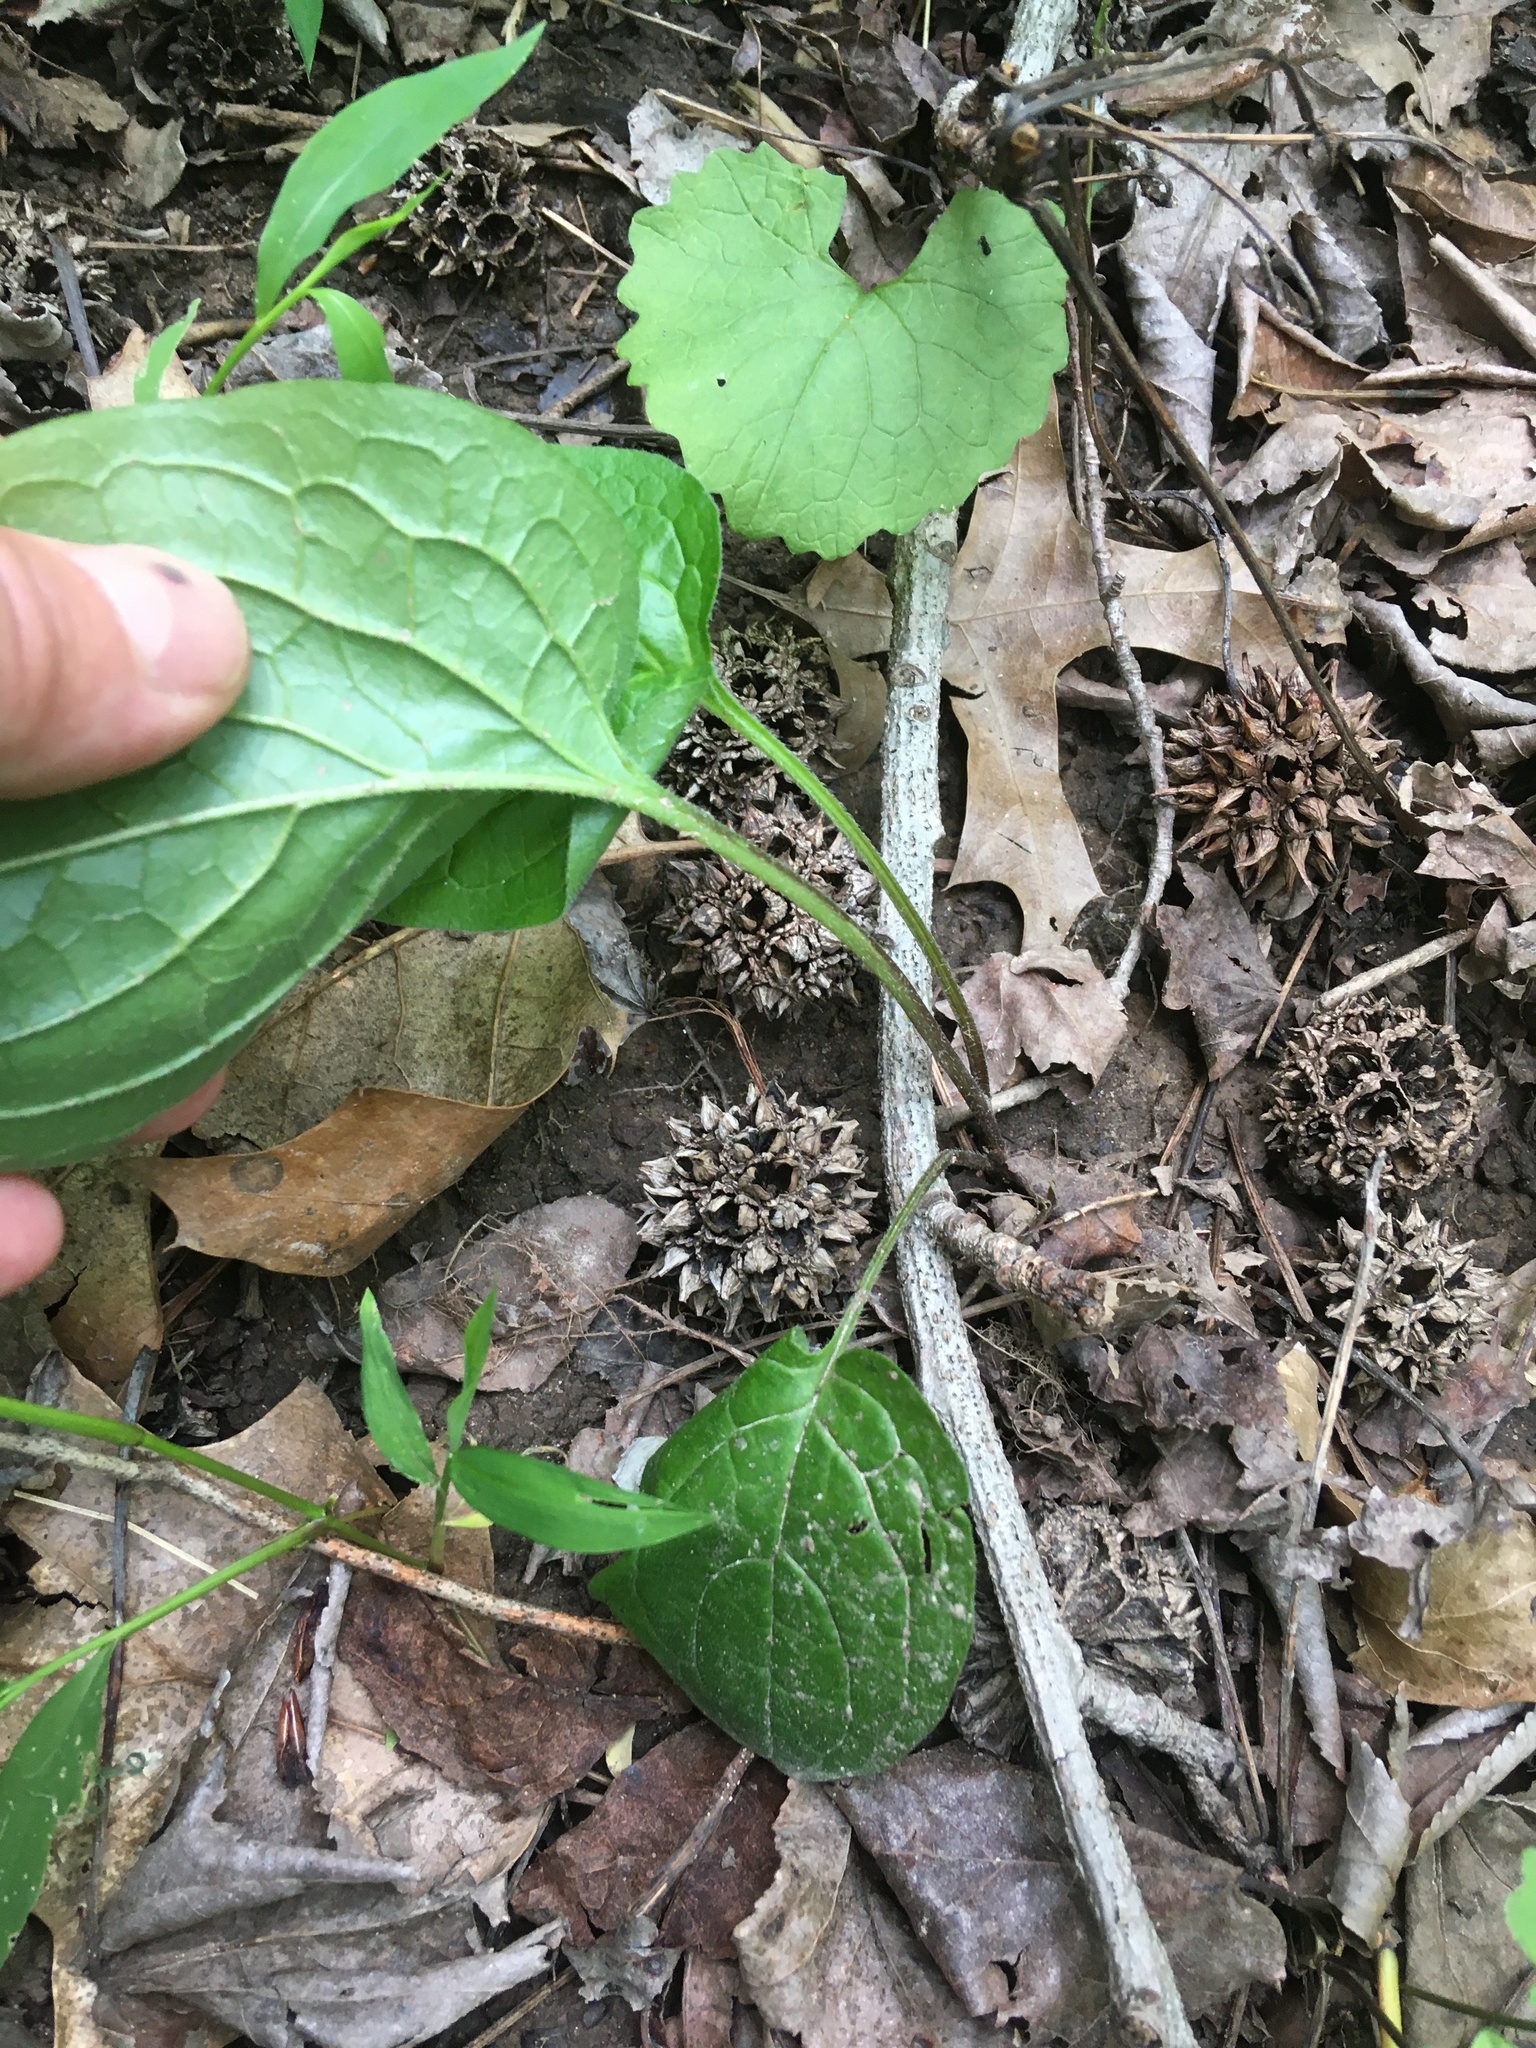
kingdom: Plantae
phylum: Tracheophyta
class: Magnoliopsida
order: Boraginales
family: Boraginaceae
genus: Hackelia
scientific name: Hackelia virginiana
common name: Beggar's-lice
